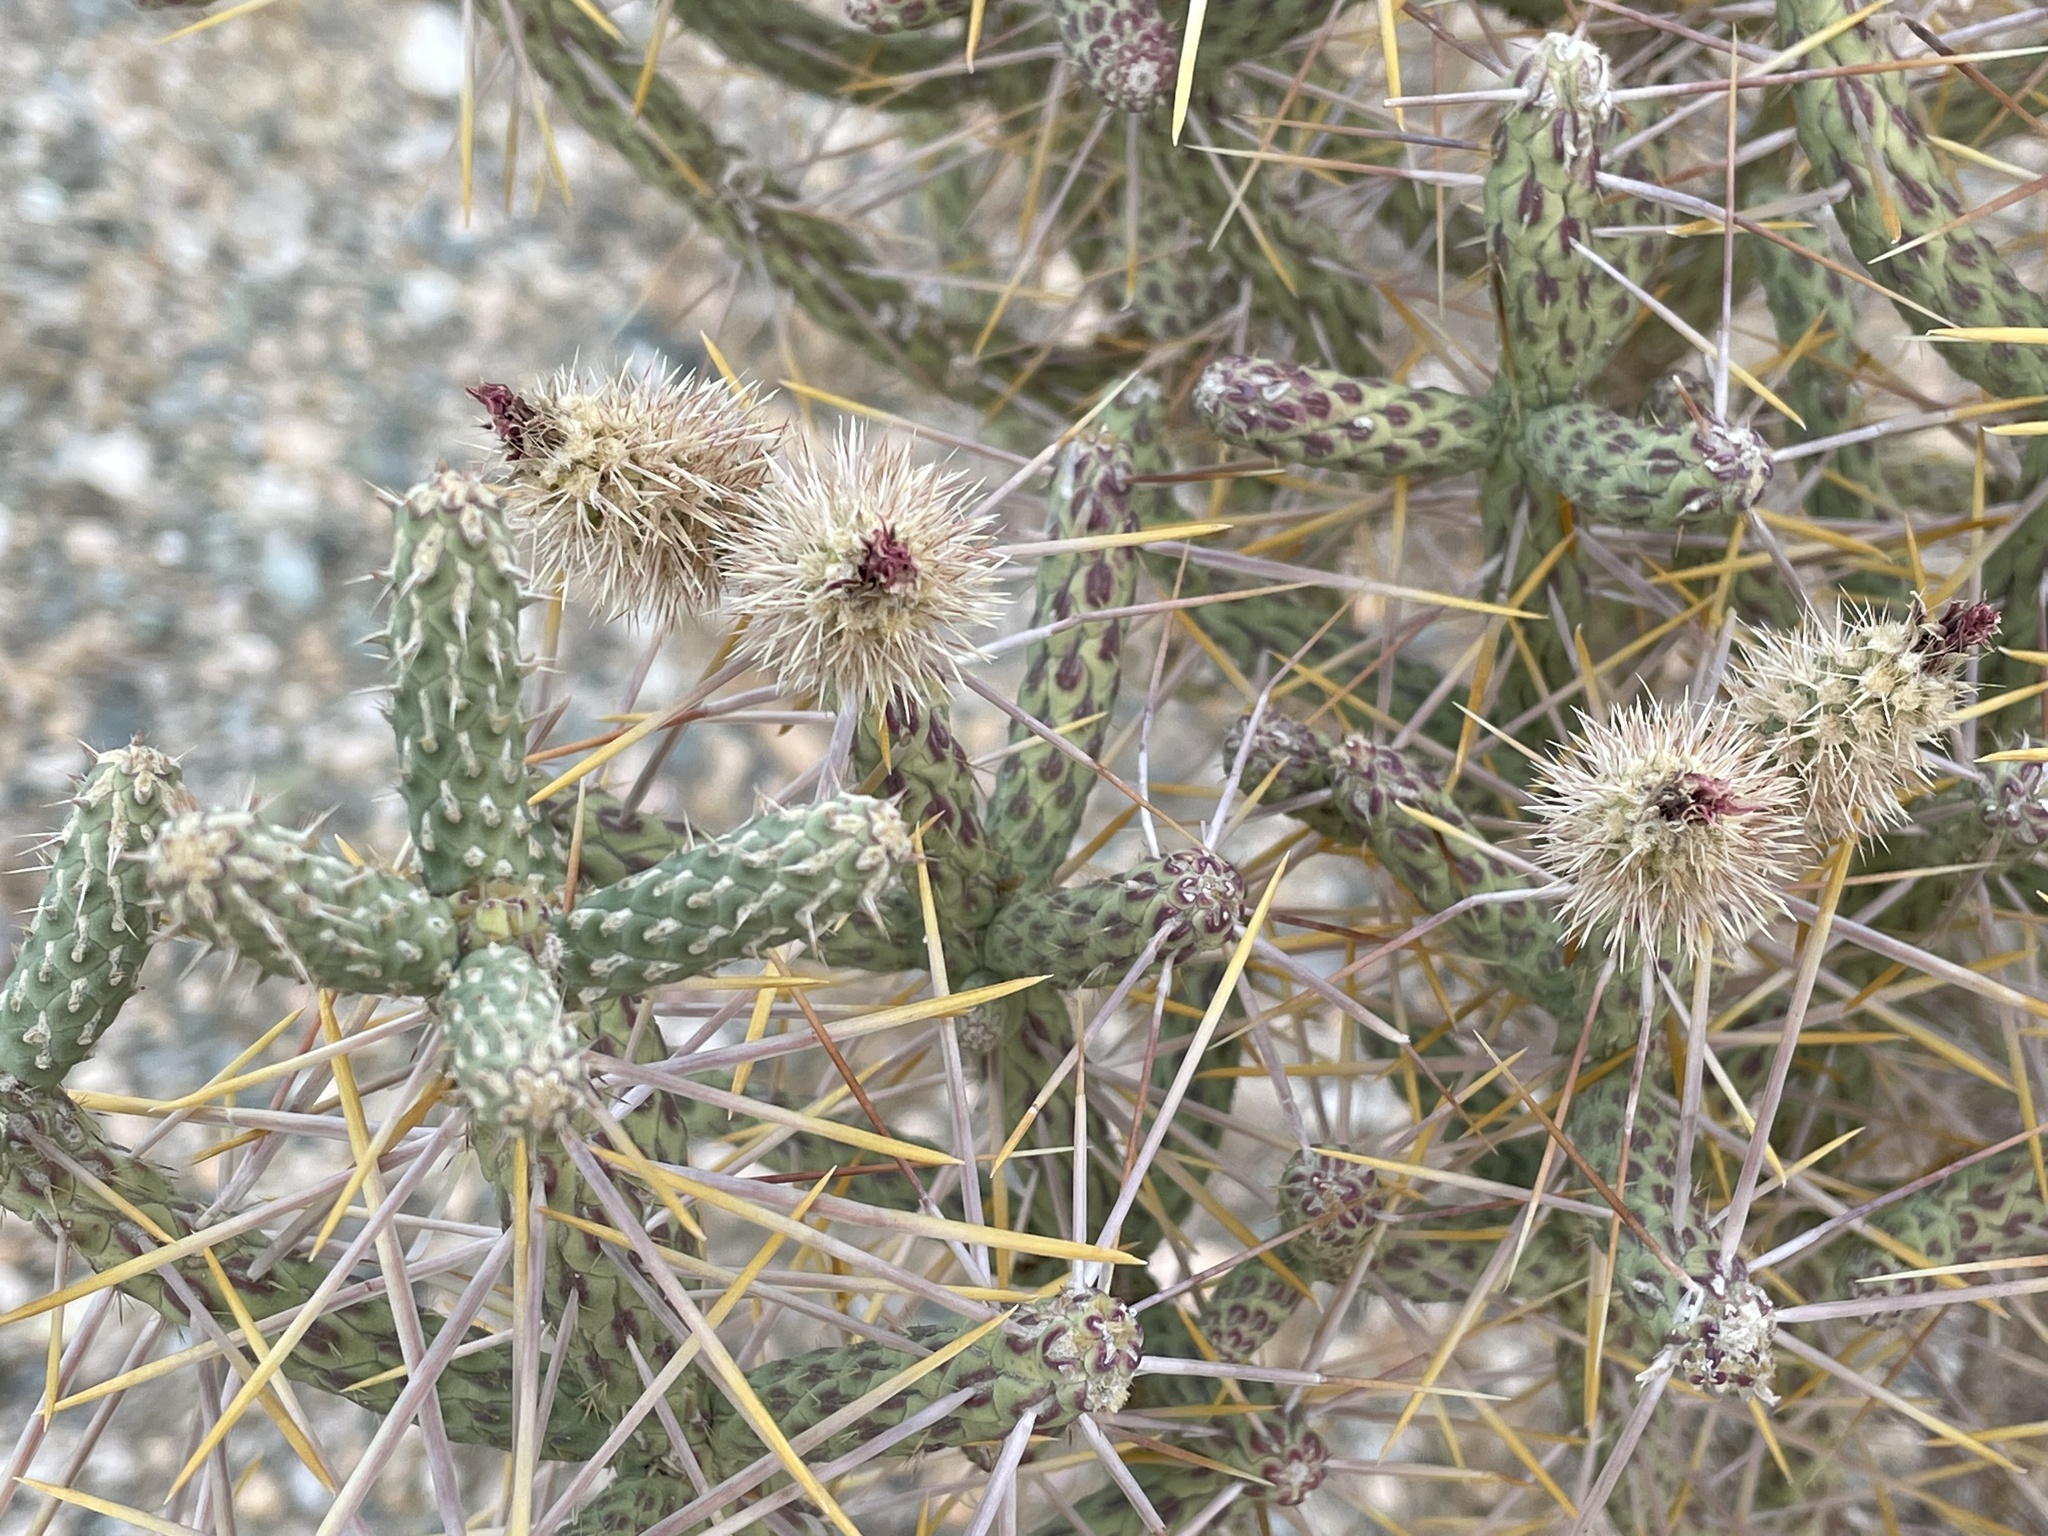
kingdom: Plantae
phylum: Tracheophyta
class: Magnoliopsida
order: Caryophyllales
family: Cactaceae
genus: Cylindropuntia
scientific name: Cylindropuntia ramosissima
